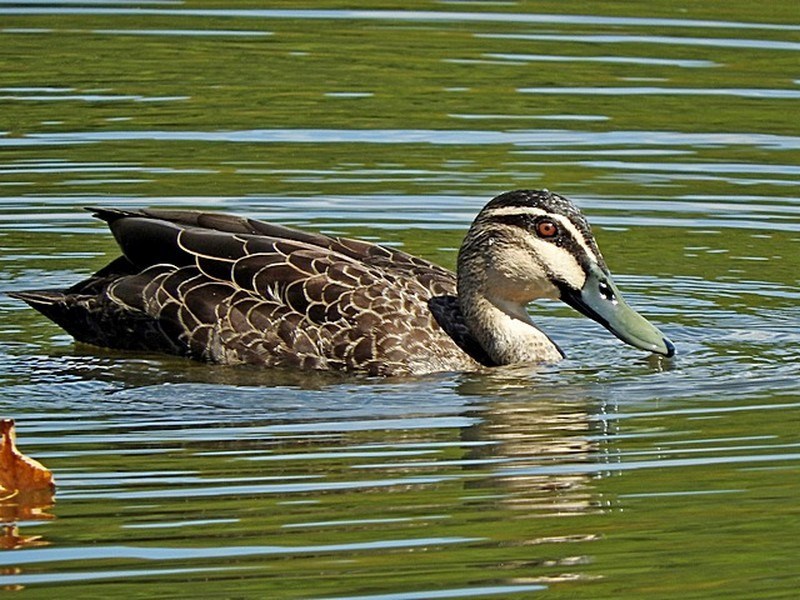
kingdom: Animalia
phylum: Chordata
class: Aves
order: Anseriformes
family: Anatidae
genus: Anas
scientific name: Anas superciliosa
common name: Pacific black duck
